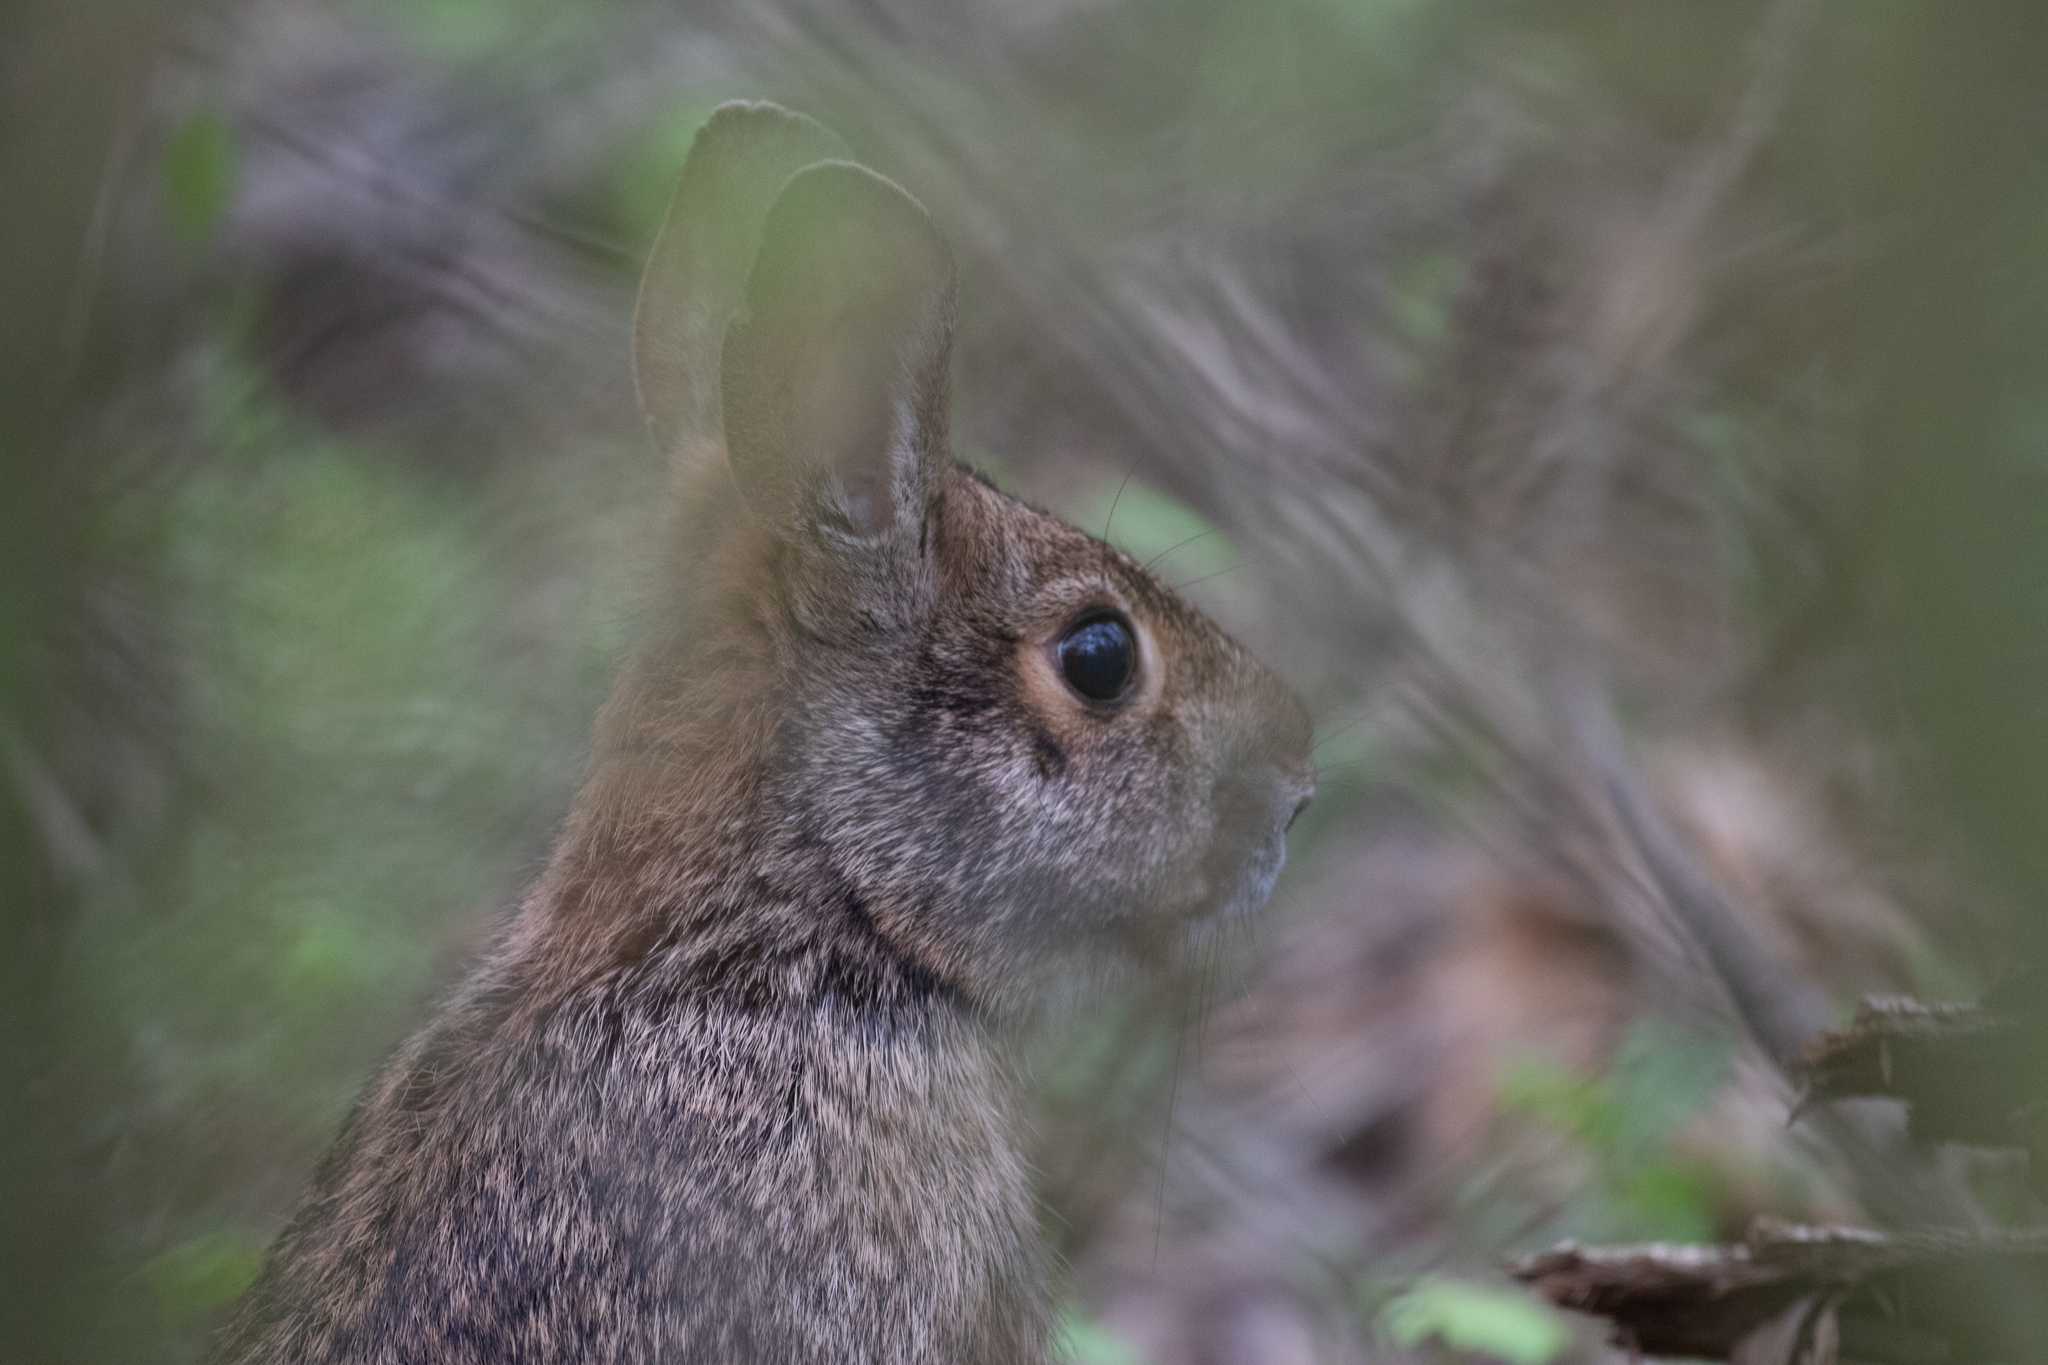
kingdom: Animalia
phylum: Chordata
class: Mammalia
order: Lagomorpha
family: Leporidae
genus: Sylvilagus
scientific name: Sylvilagus aquaticus
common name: Swamp rabbit
